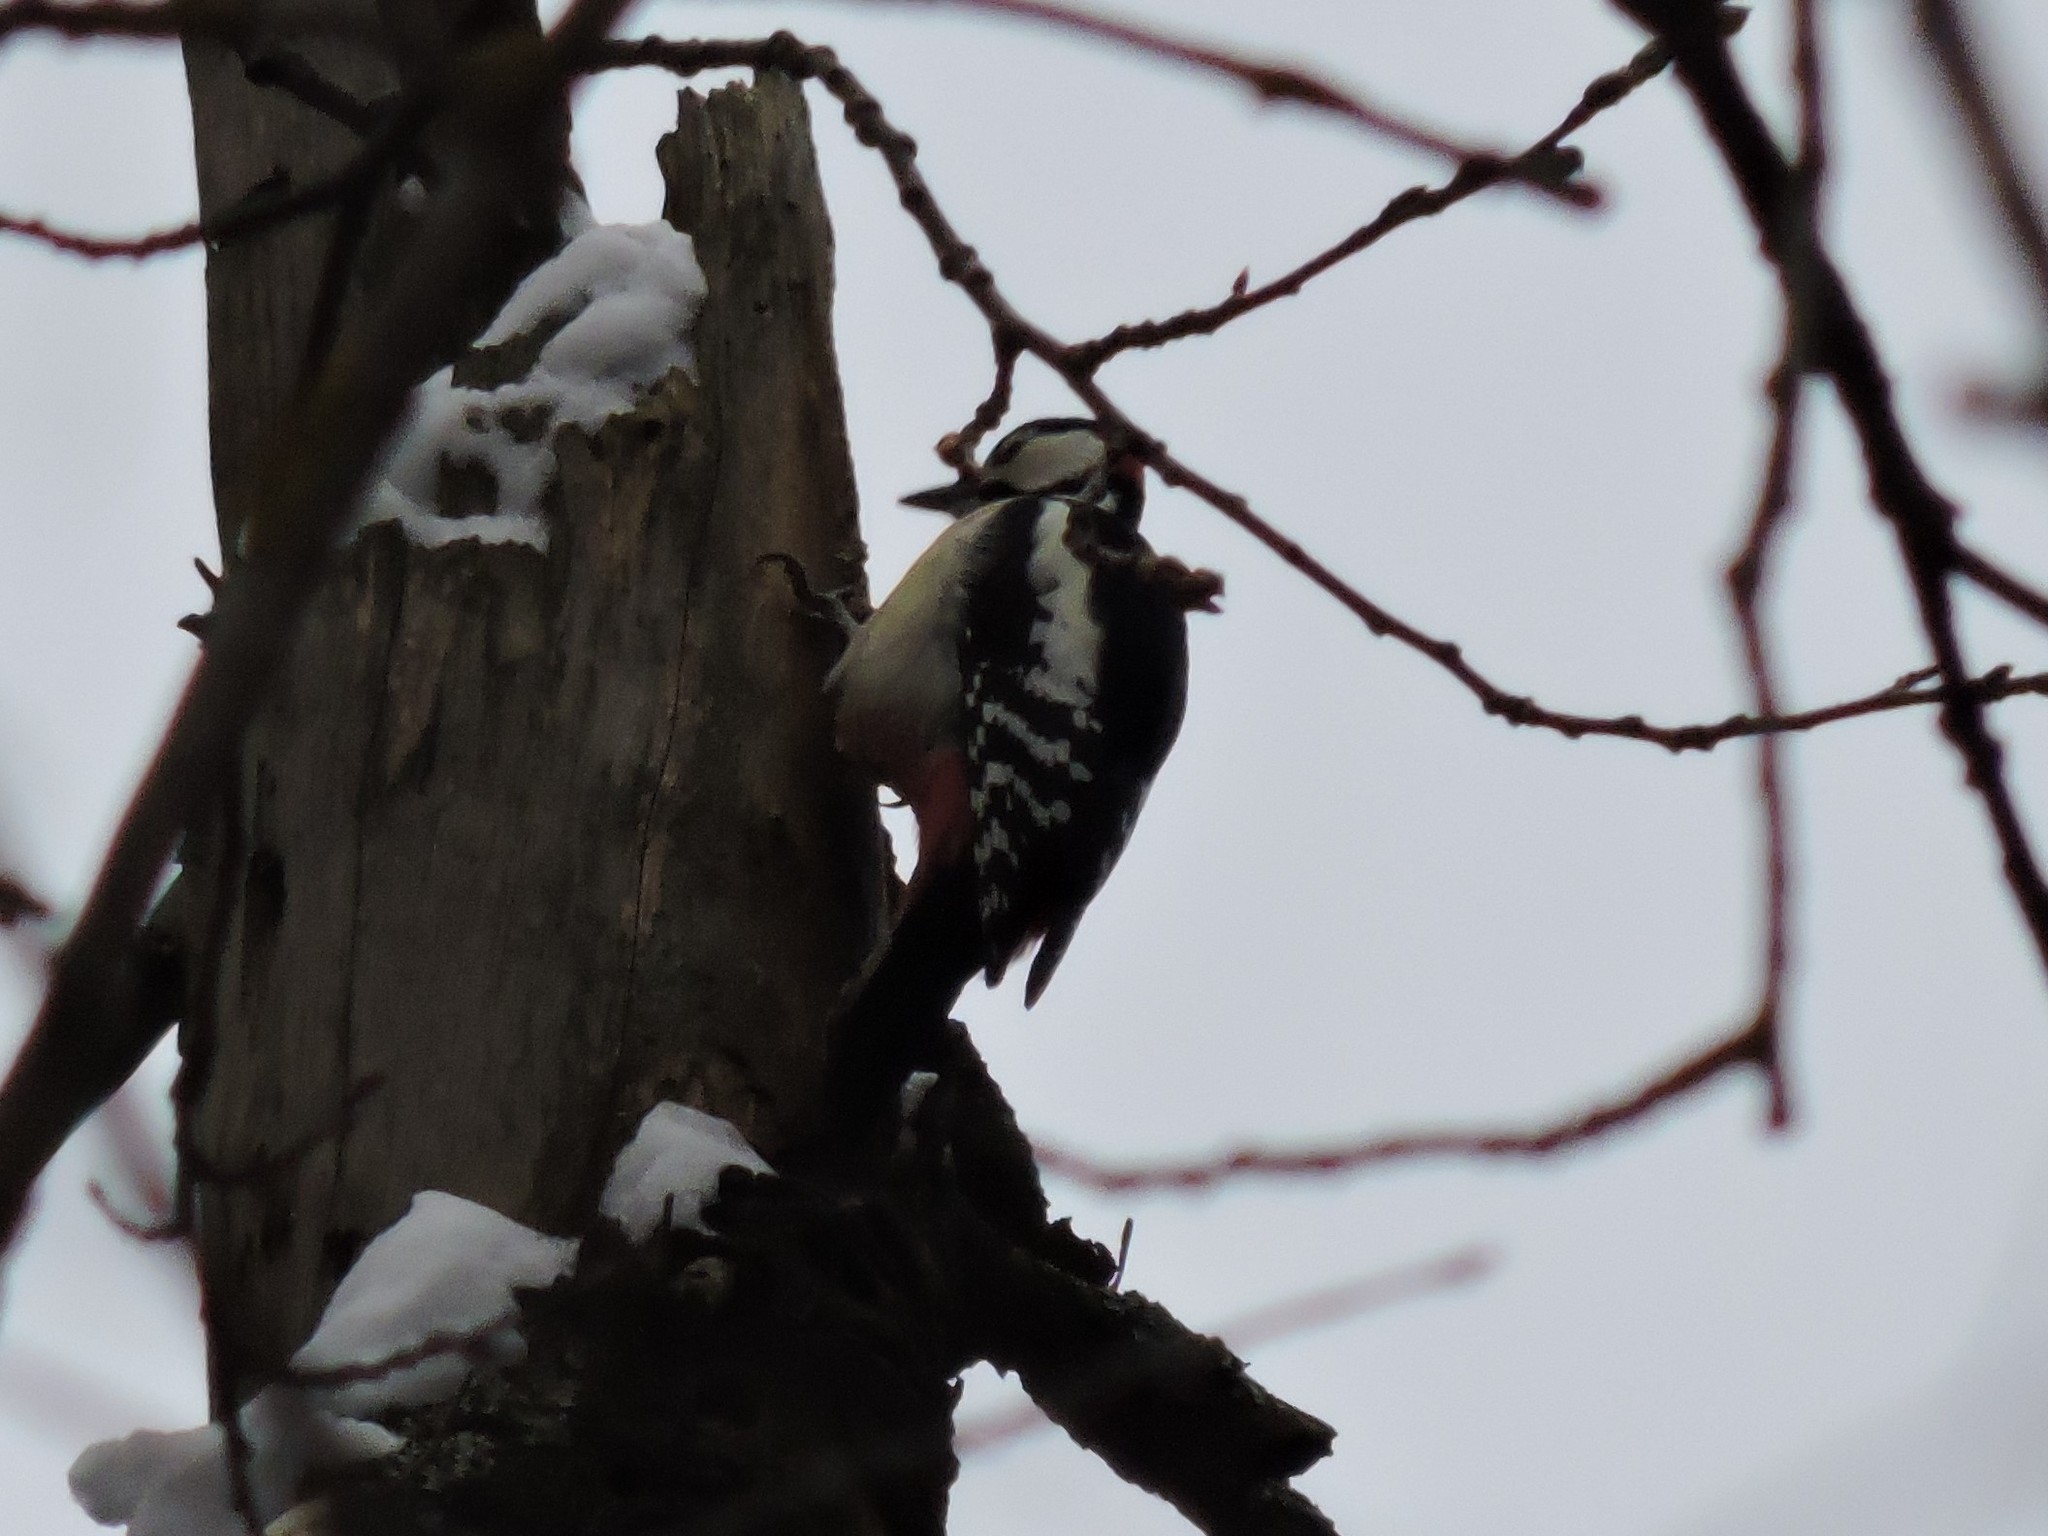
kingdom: Animalia
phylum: Chordata
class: Aves
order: Piciformes
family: Picidae
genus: Dendrocopos
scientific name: Dendrocopos major
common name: Great spotted woodpecker
